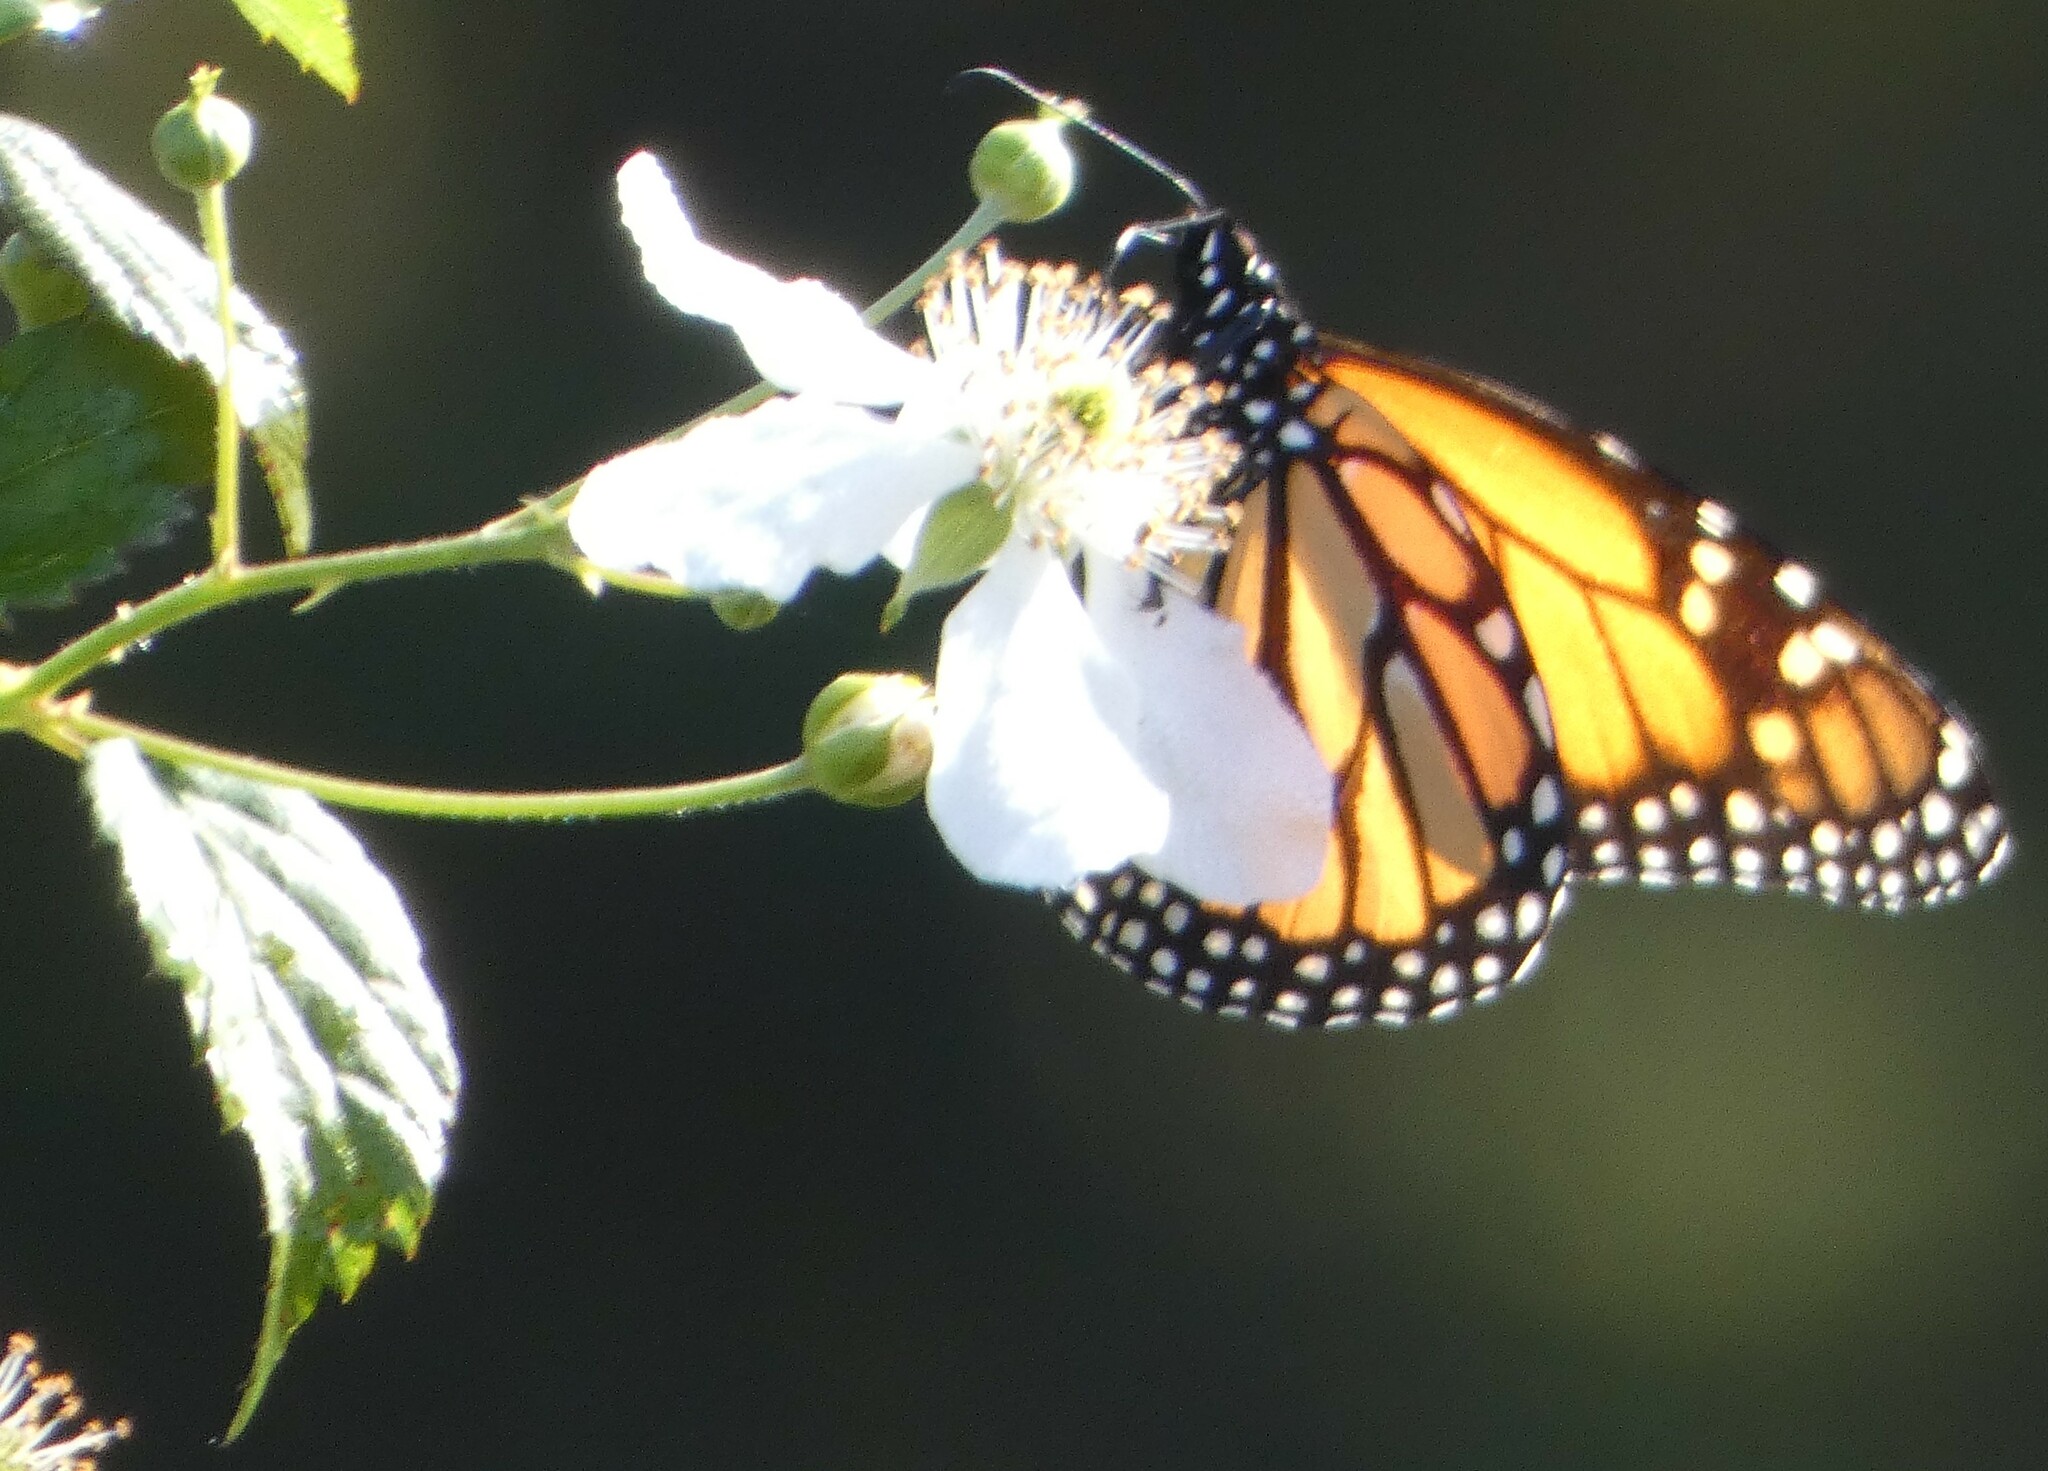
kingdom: Animalia
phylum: Arthropoda
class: Insecta
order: Lepidoptera
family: Nymphalidae
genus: Danaus
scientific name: Danaus plexippus
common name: Monarch
